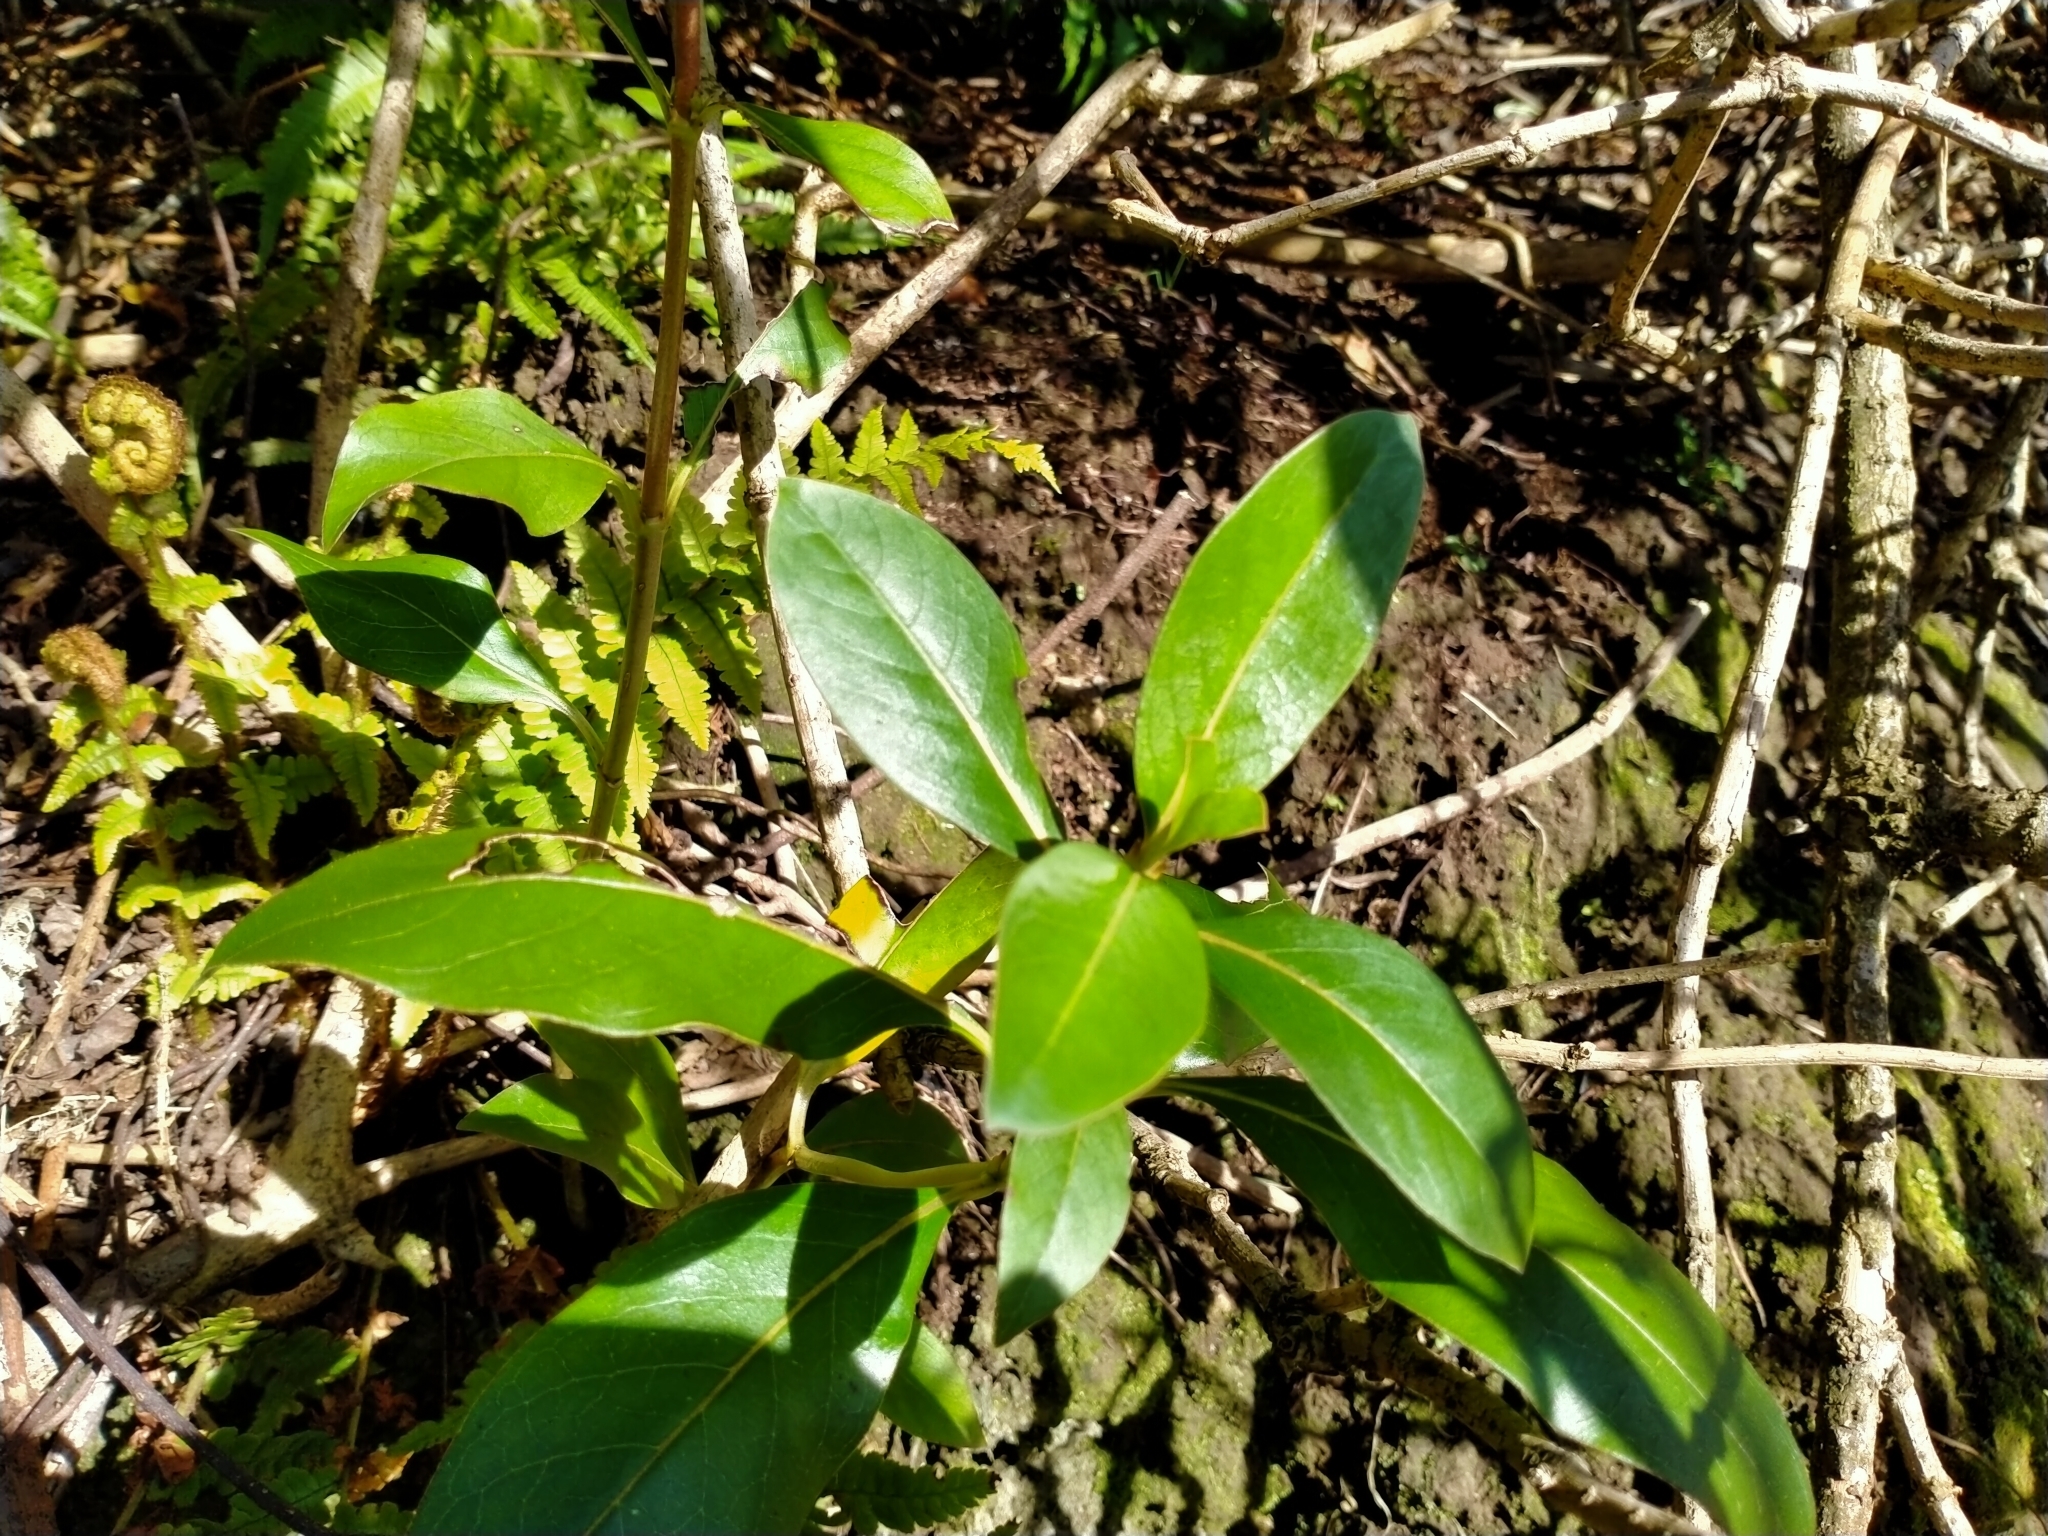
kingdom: Plantae
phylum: Tracheophyta
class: Magnoliopsida
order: Gentianales
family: Rubiaceae
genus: Coprosma
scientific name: Coprosma robusta
